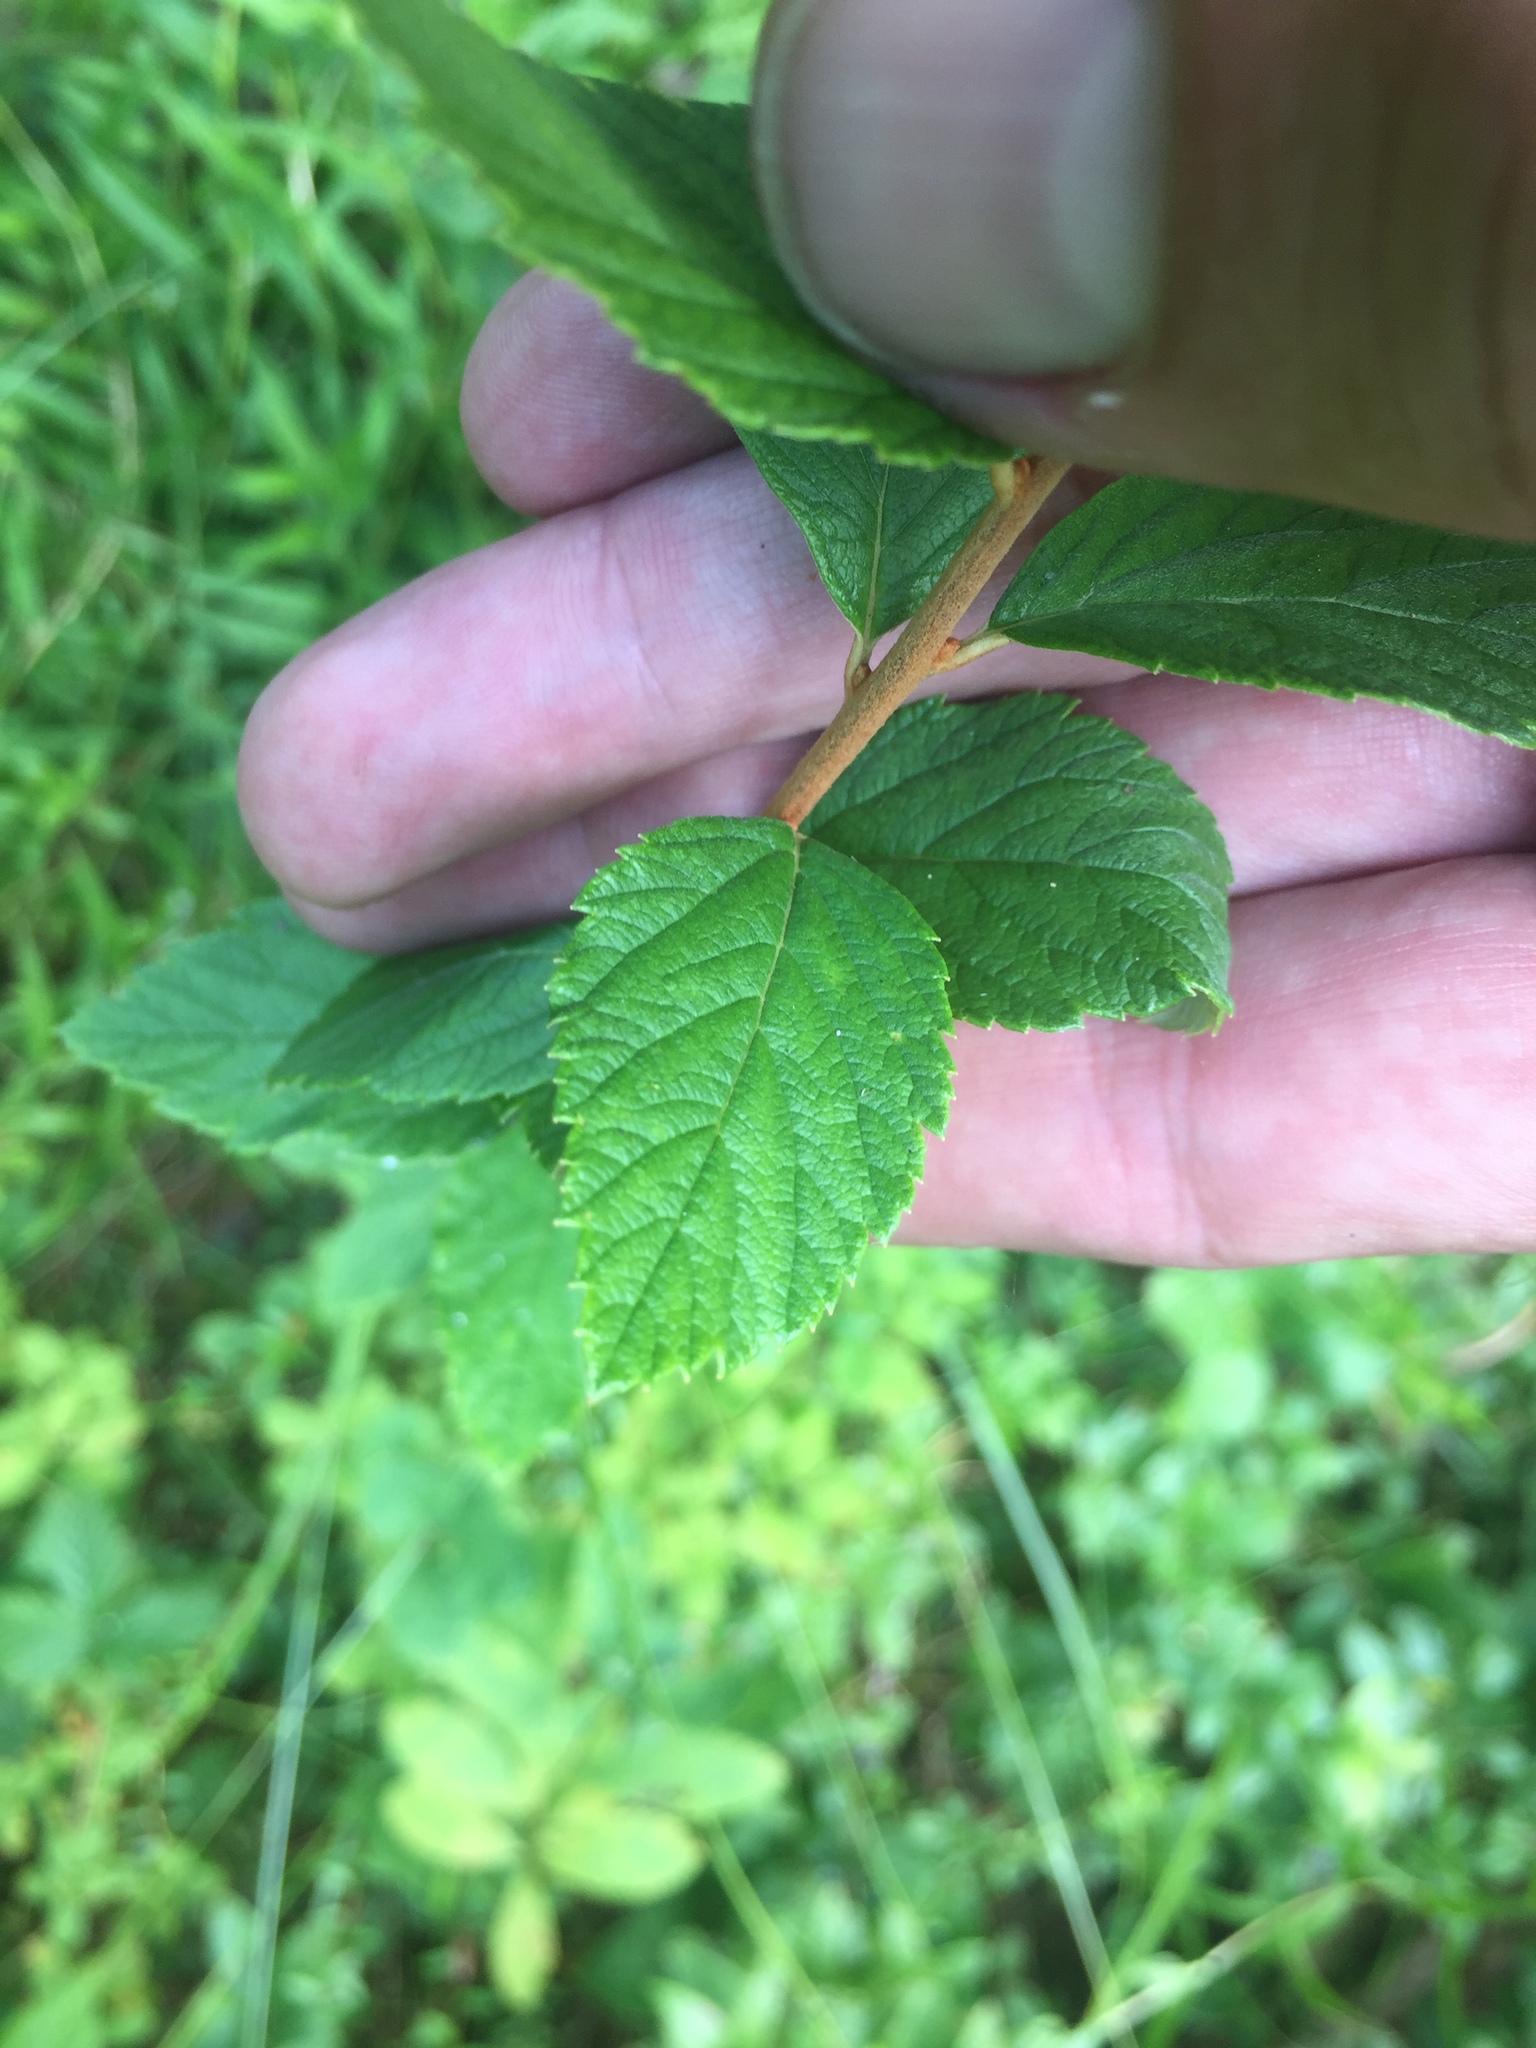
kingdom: Plantae
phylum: Tracheophyta
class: Magnoliopsida
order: Rosales
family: Rosaceae
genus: Spiraea
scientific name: Spiraea tomentosa
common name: Hardhack
